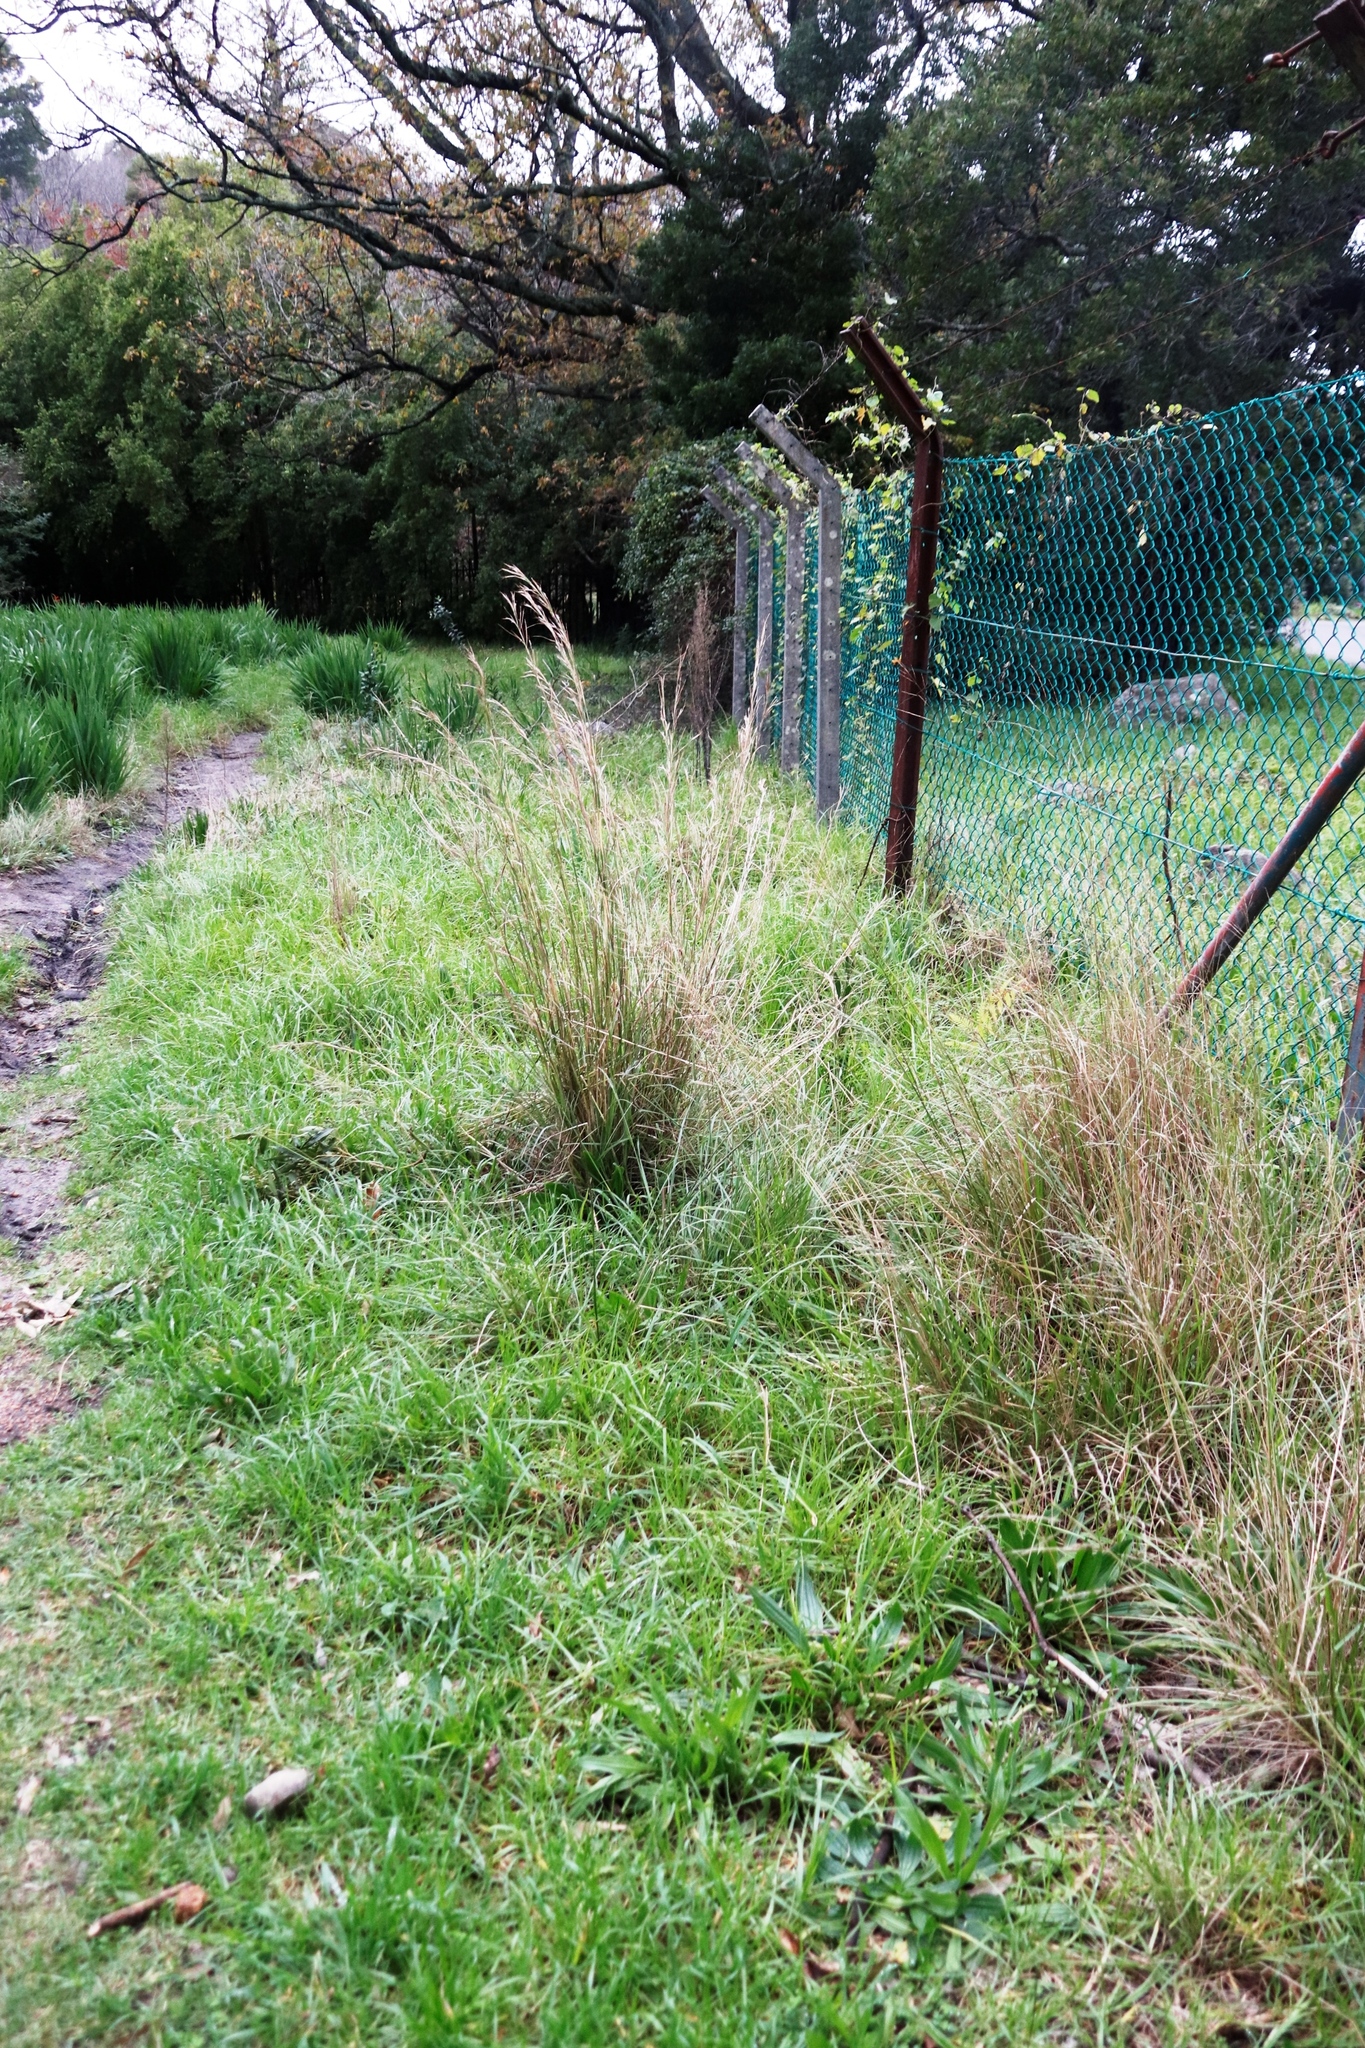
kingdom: Plantae
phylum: Tracheophyta
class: Liliopsida
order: Poales
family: Poaceae
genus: Hyparrhenia
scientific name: Hyparrhenia hirta
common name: Thatching grass
